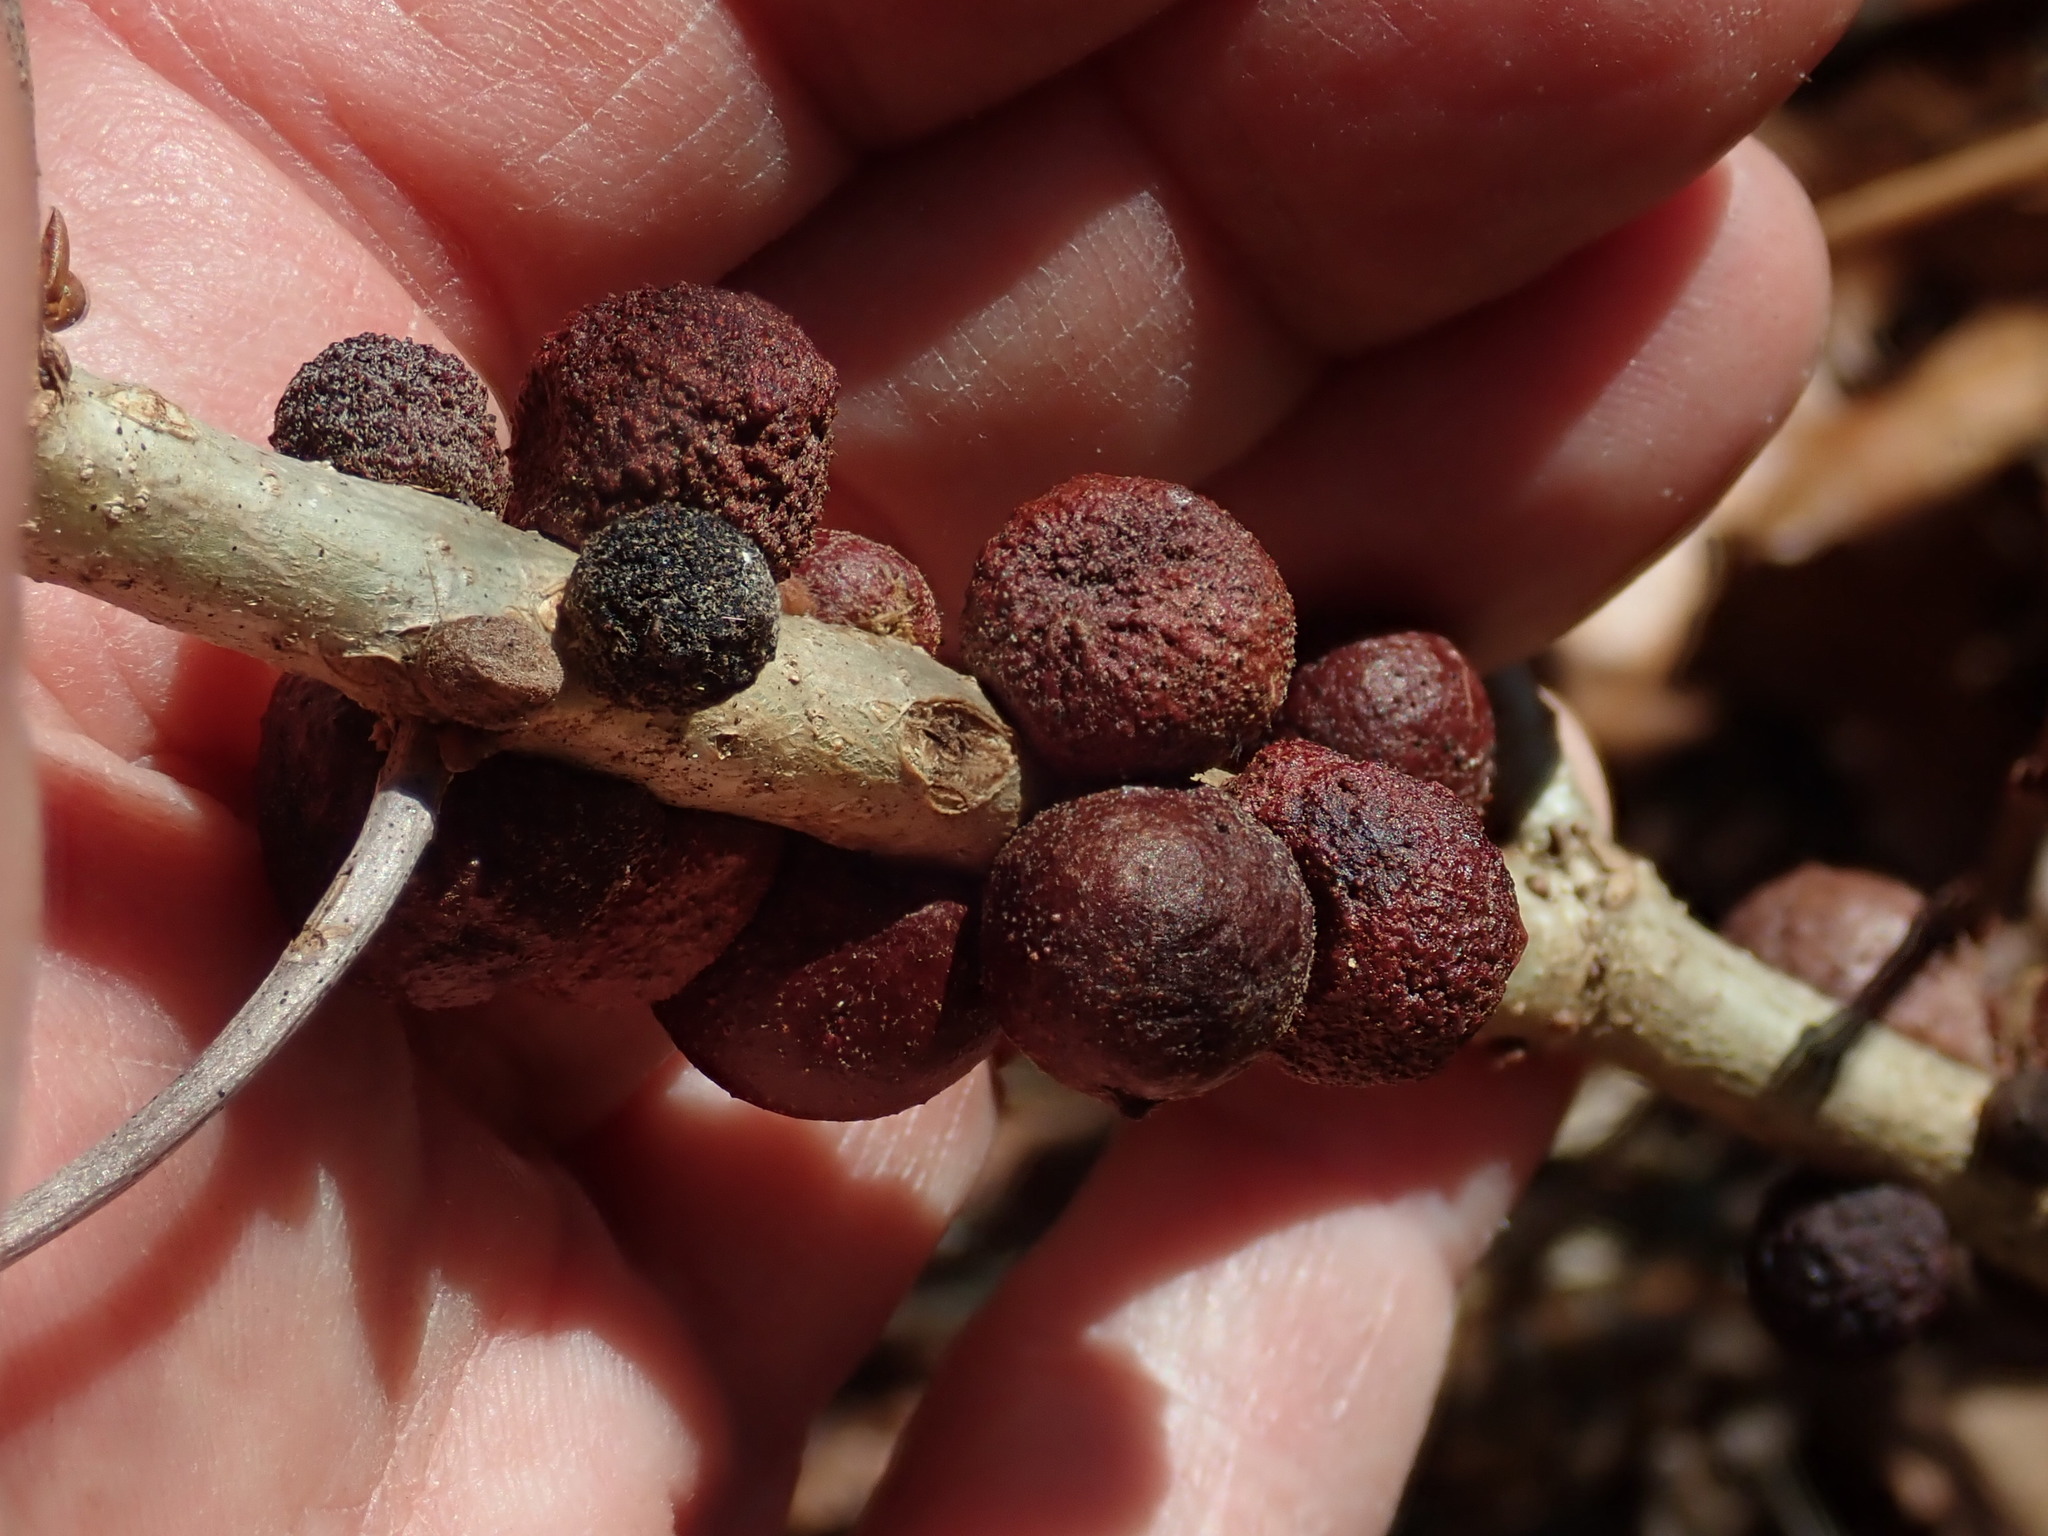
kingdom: Animalia
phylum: Arthropoda
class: Insecta
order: Hymenoptera
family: Cynipidae
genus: Disholcaspis
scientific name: Disholcaspis
